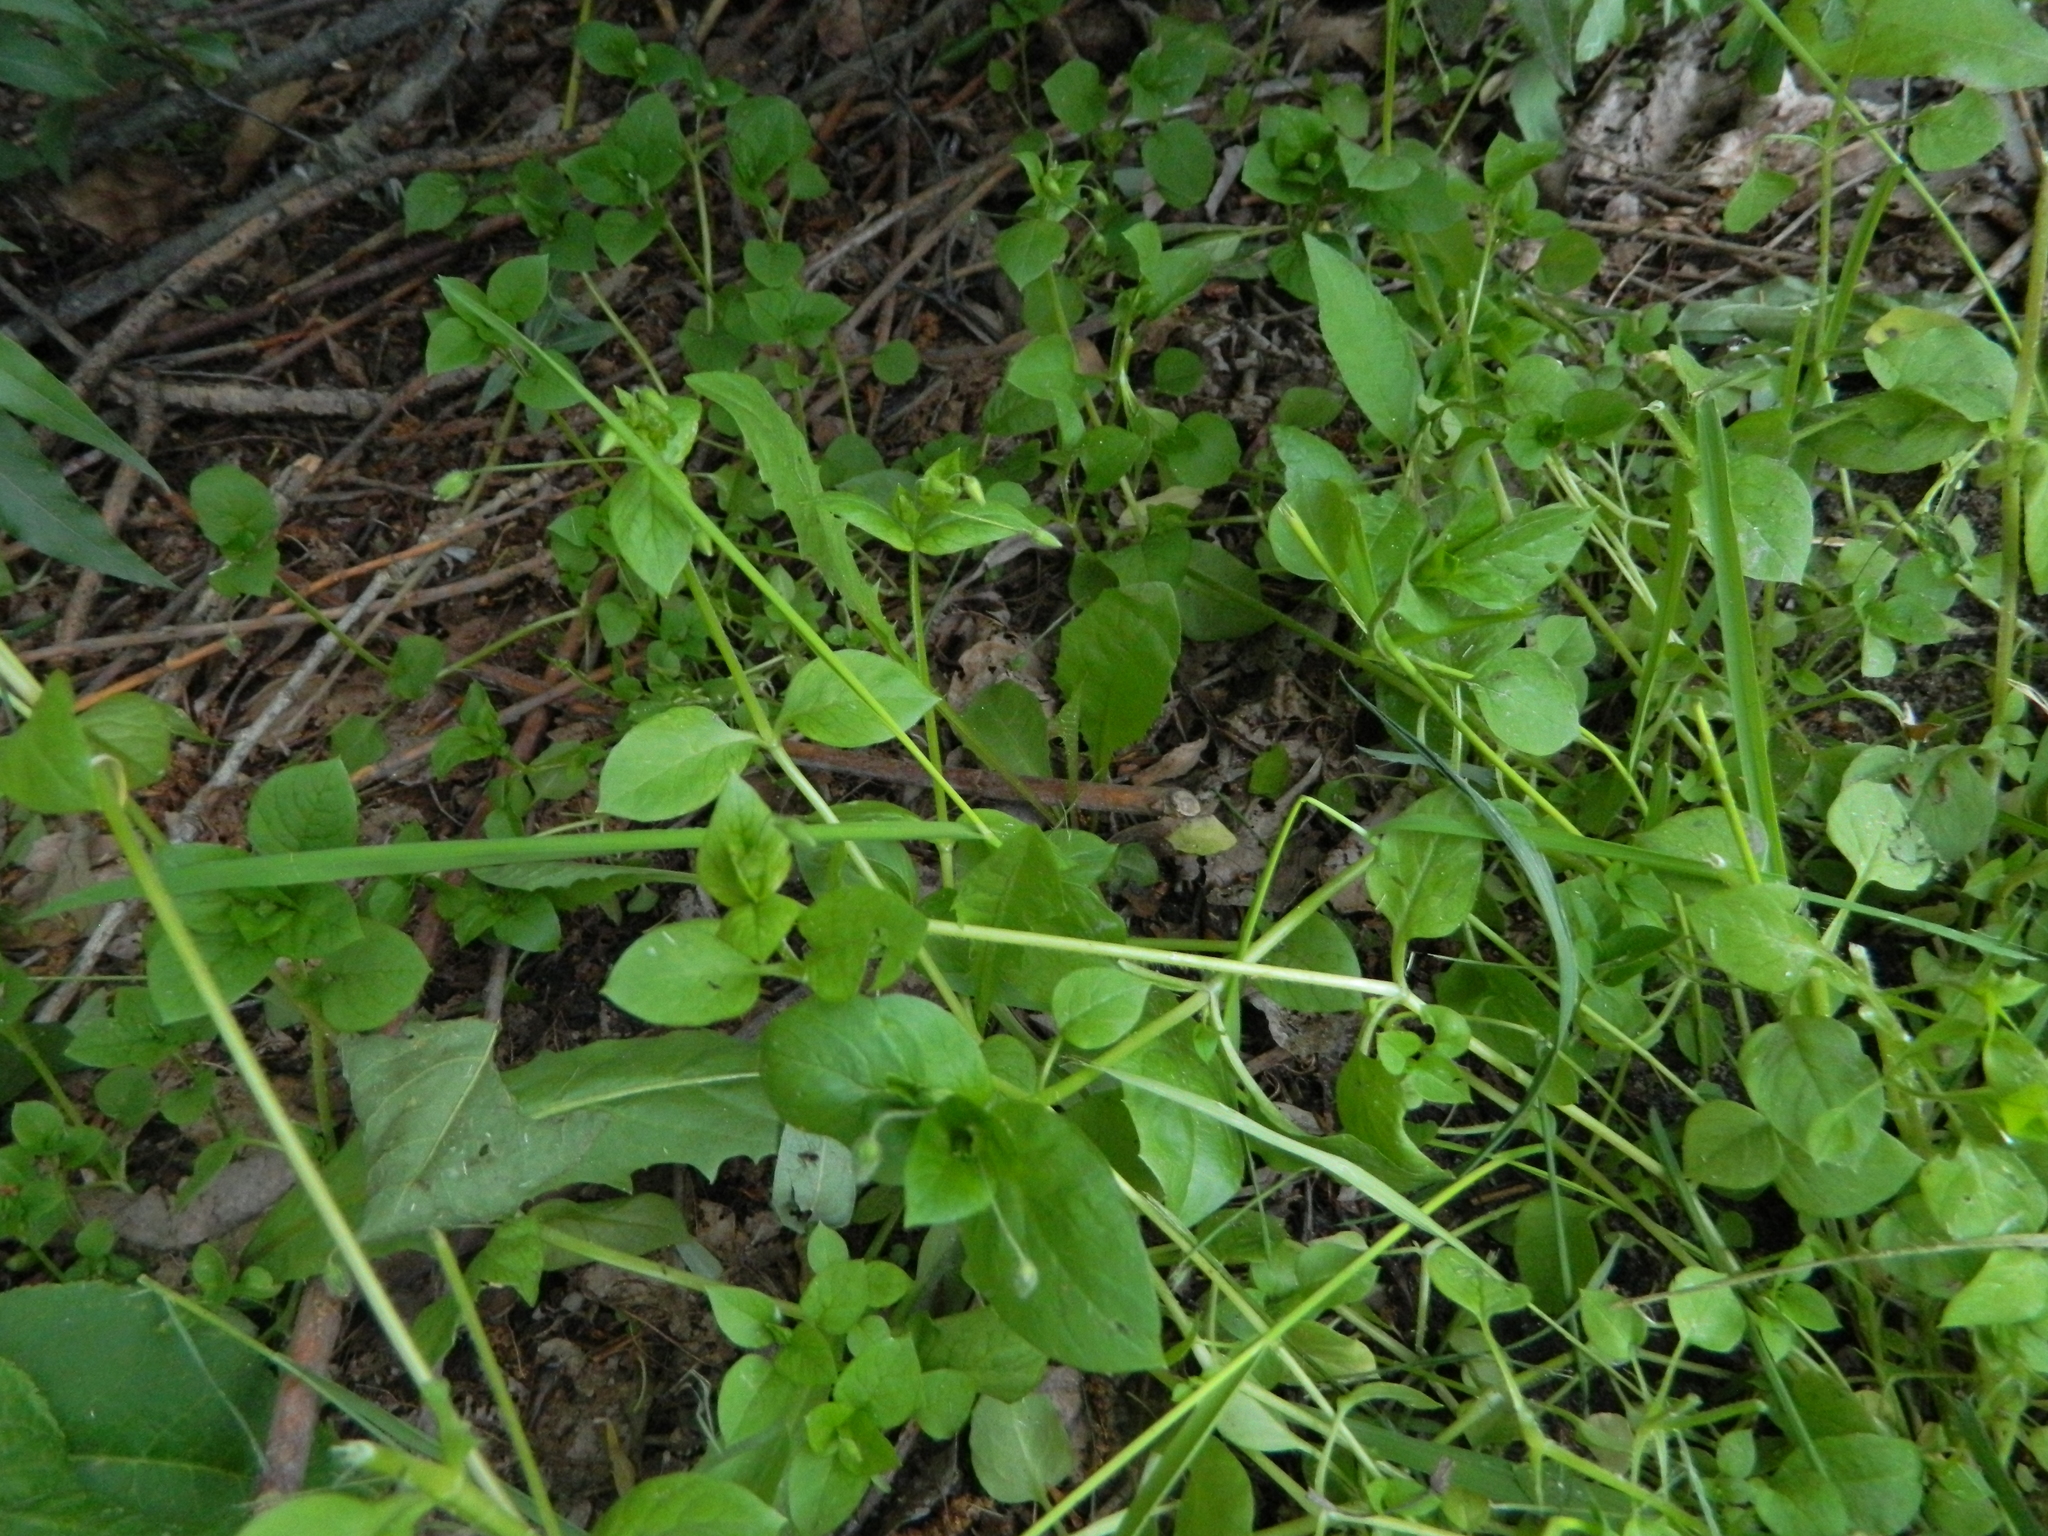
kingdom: Plantae
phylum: Tracheophyta
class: Magnoliopsida
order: Caryophyllales
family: Caryophyllaceae
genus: Stellaria
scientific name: Stellaria media
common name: Common chickweed
